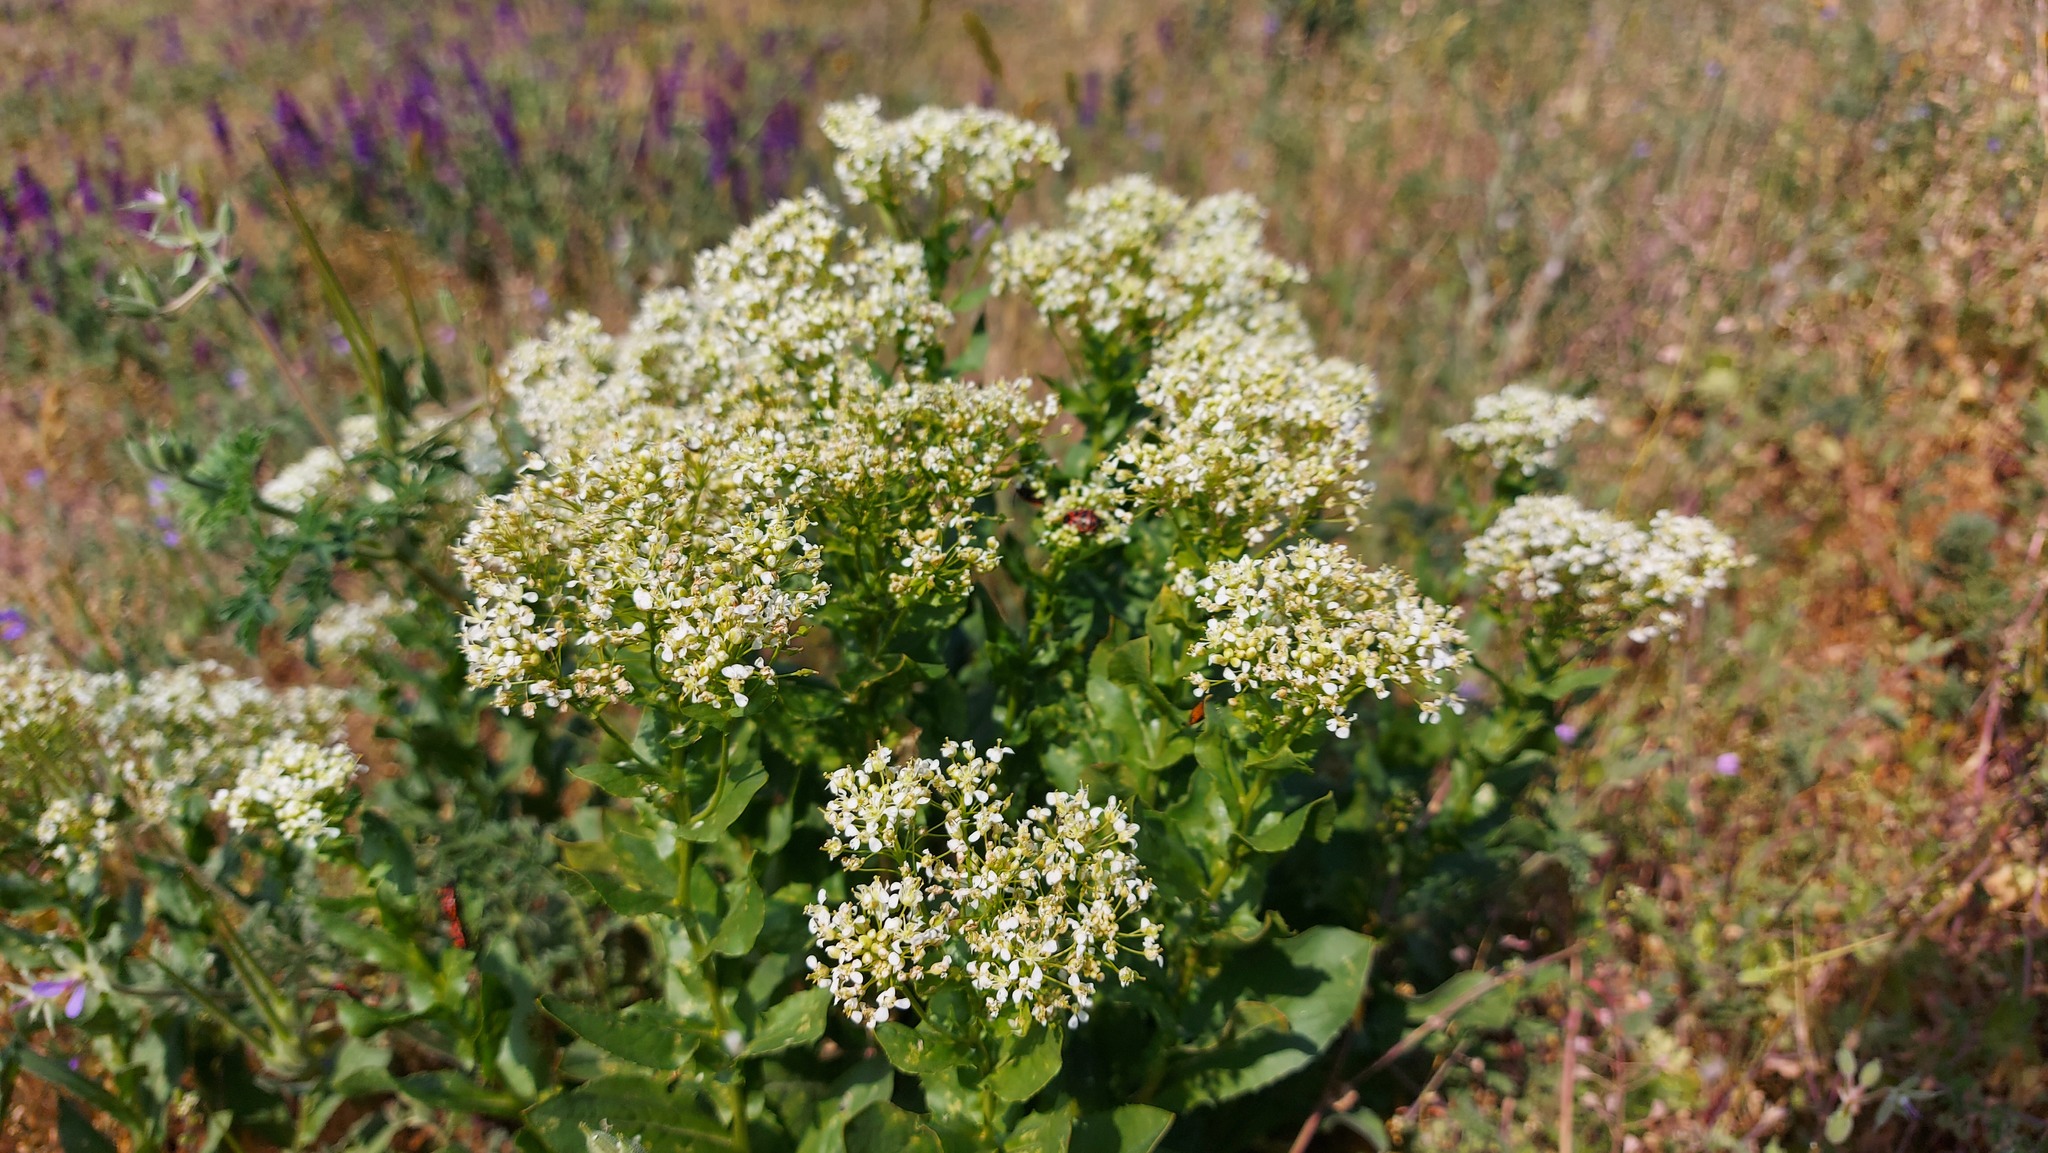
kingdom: Plantae
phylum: Tracheophyta
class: Magnoliopsida
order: Brassicales
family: Brassicaceae
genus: Lepidium
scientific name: Lepidium draba
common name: Hoary cress
